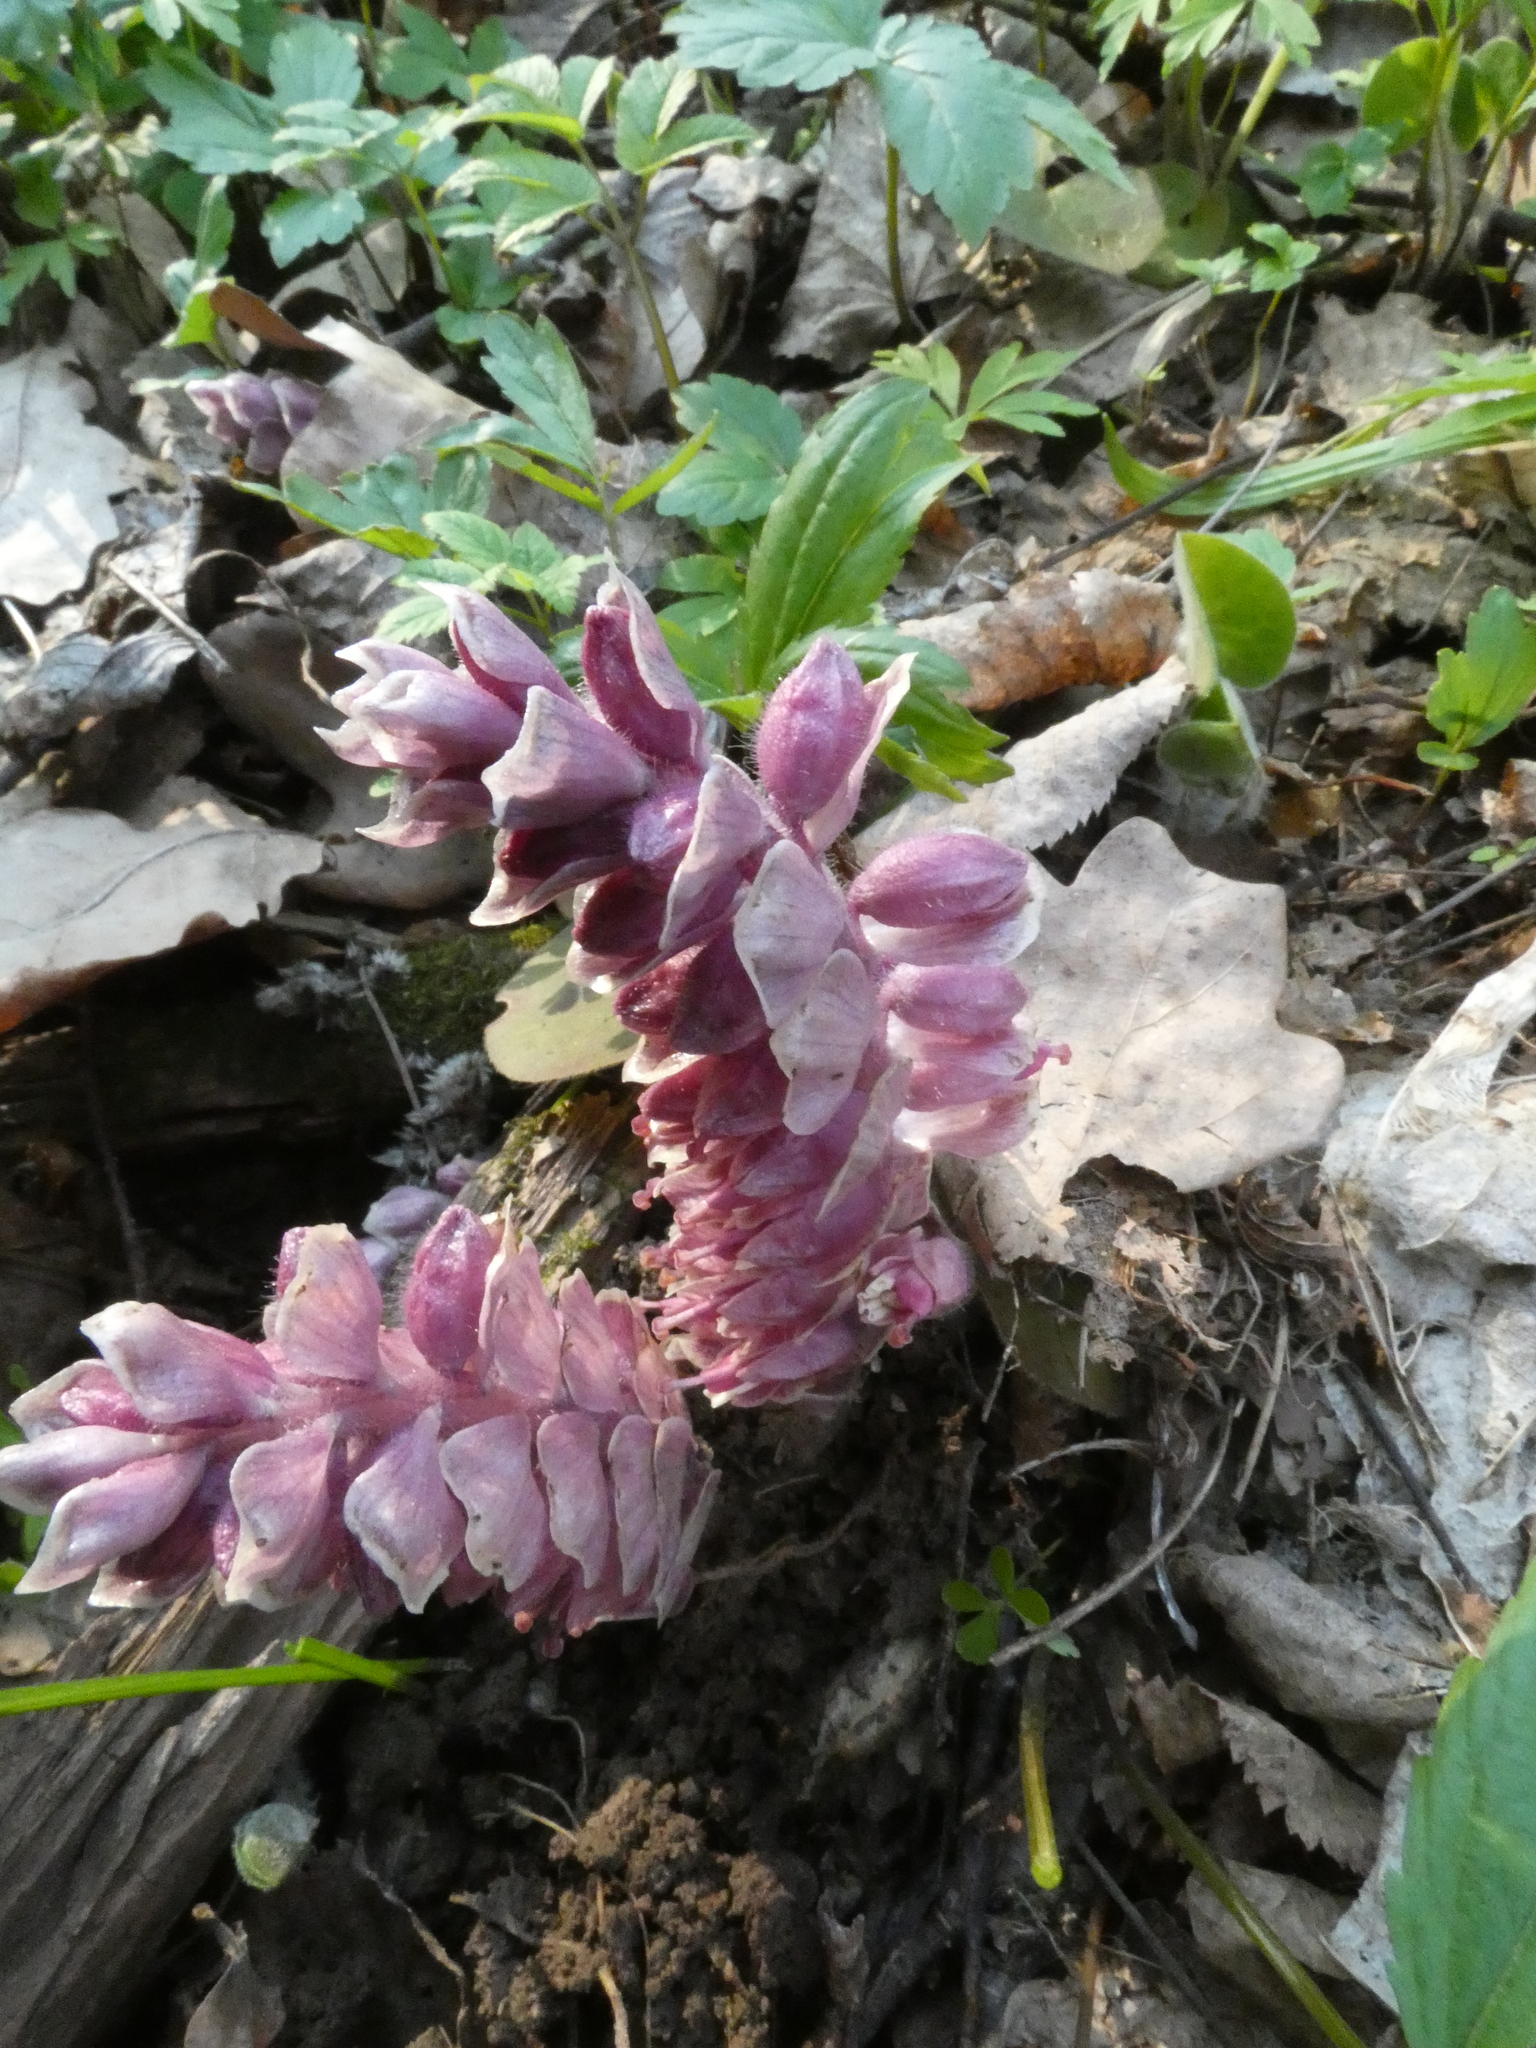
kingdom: Plantae
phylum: Tracheophyta
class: Magnoliopsida
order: Lamiales
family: Orobanchaceae
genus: Lathraea
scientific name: Lathraea squamaria
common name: Toothwort
